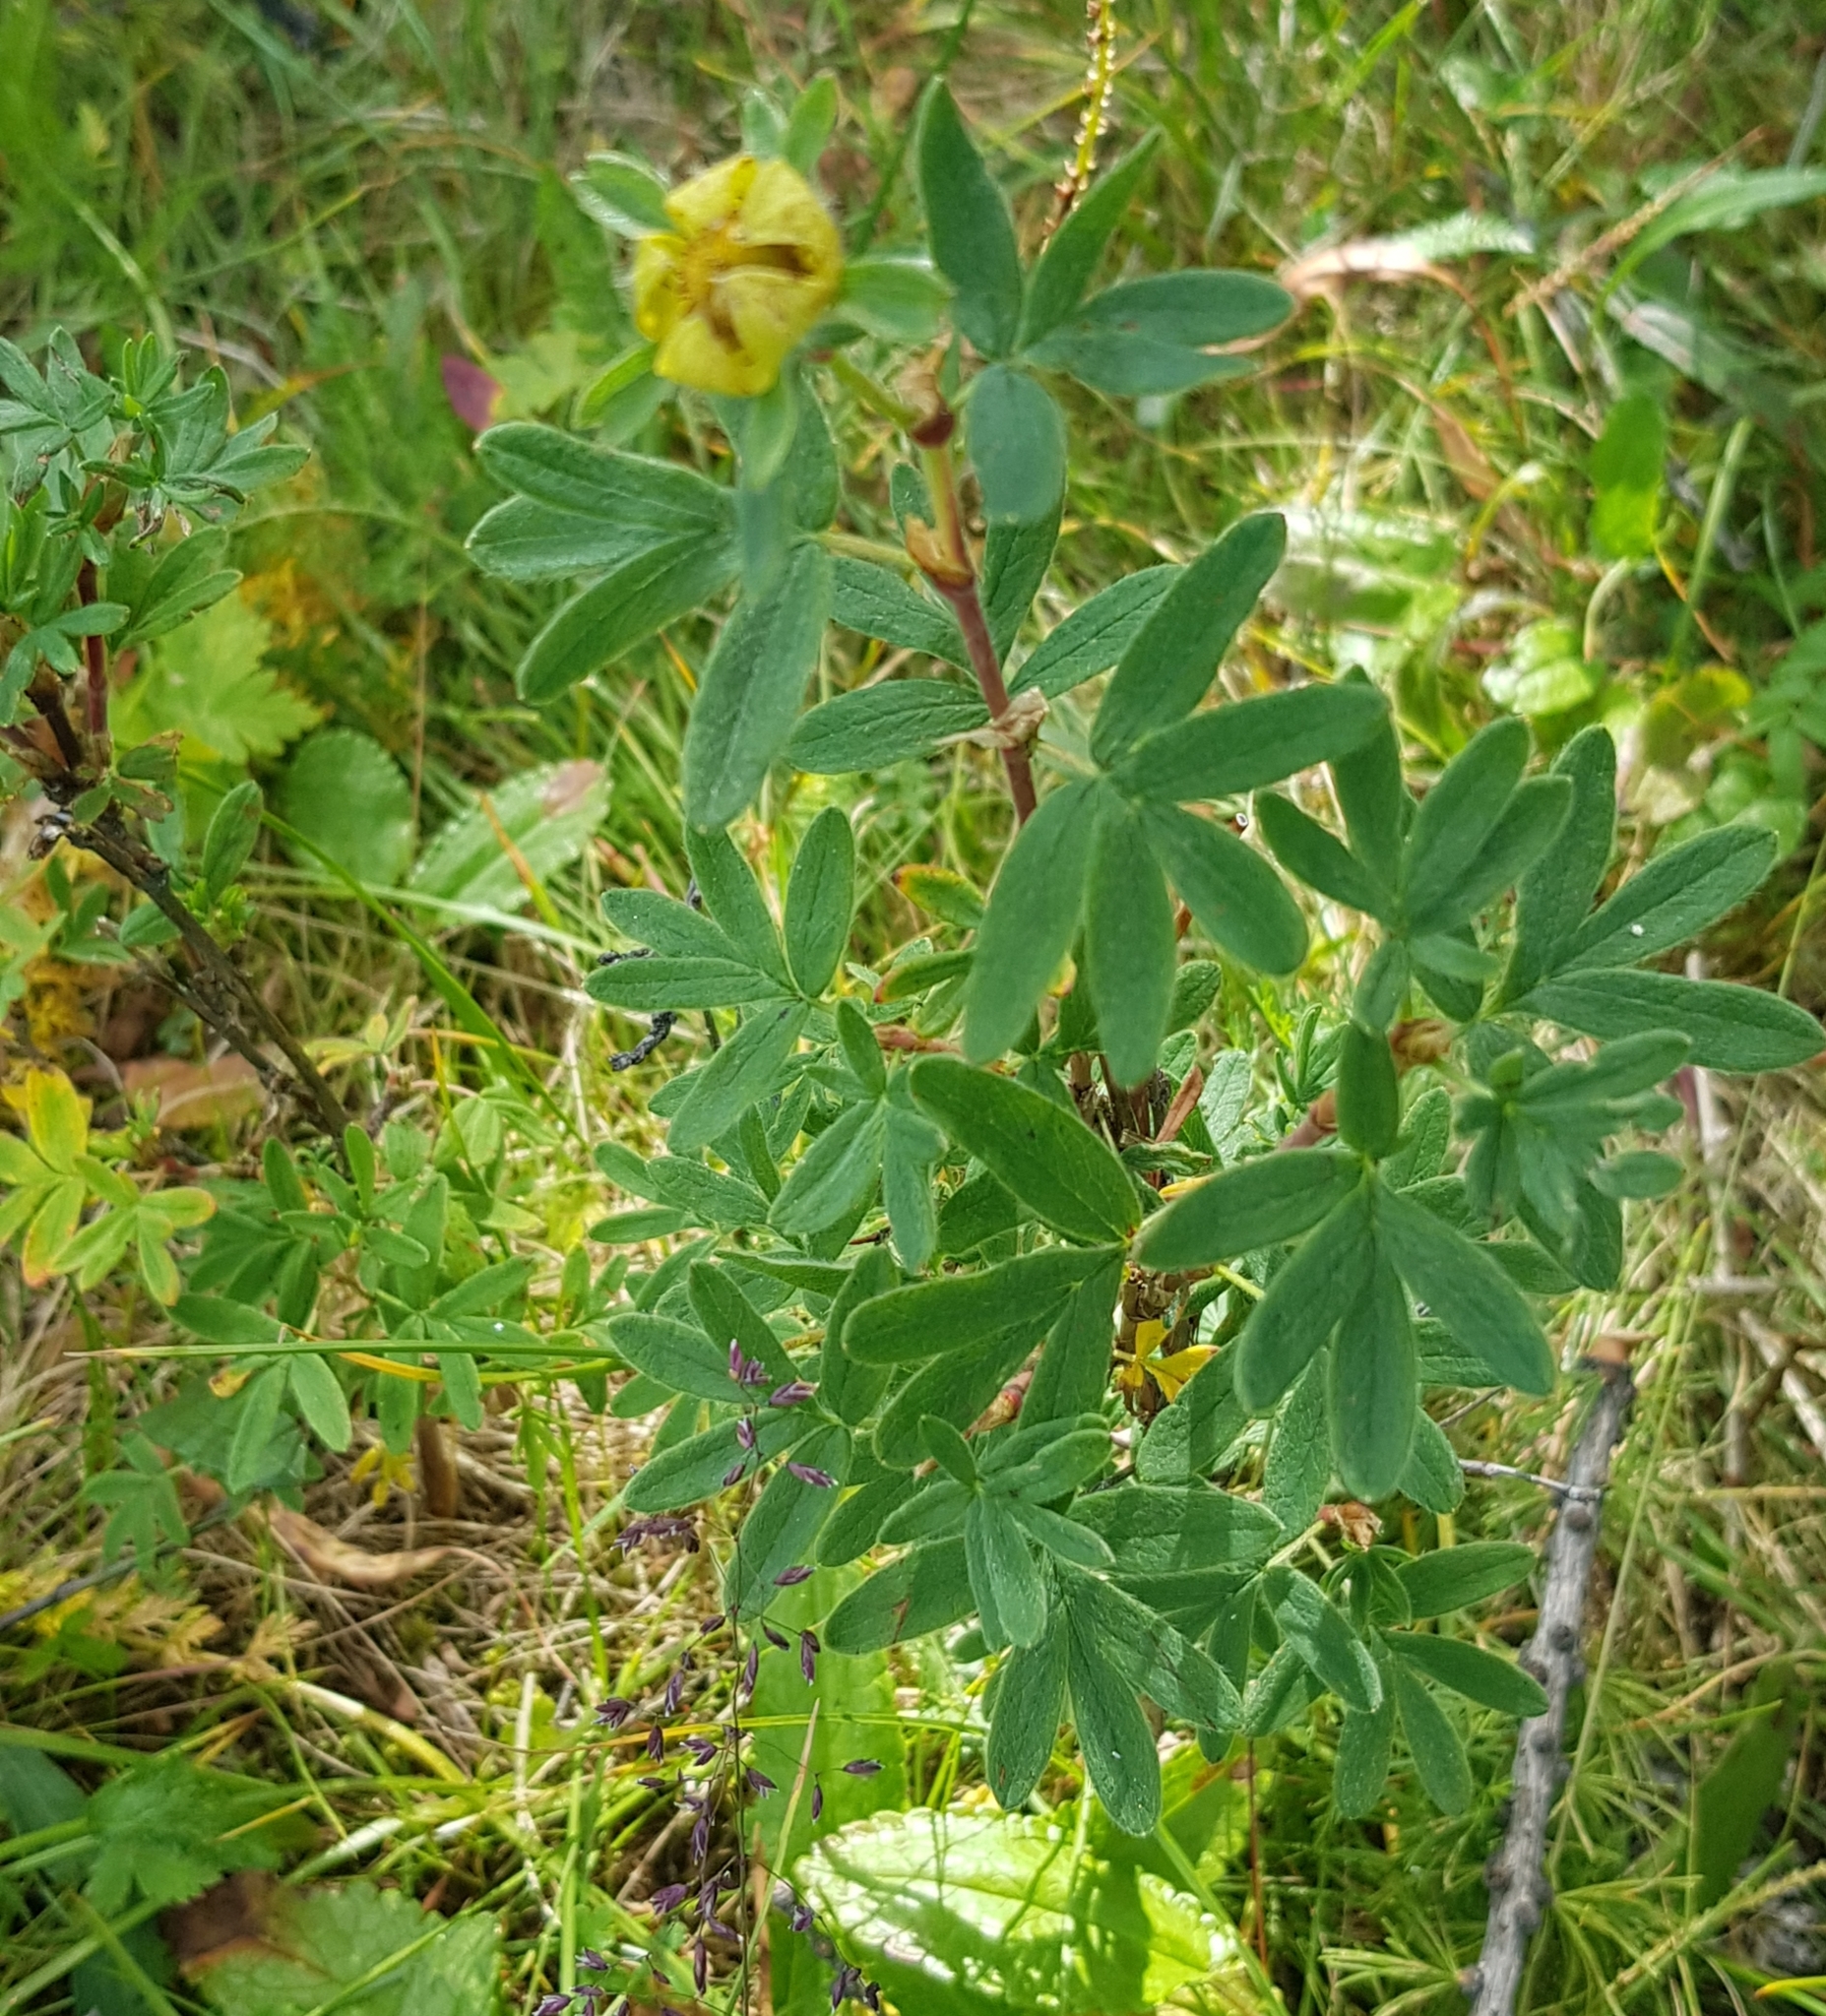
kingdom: Plantae
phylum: Tracheophyta
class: Magnoliopsida
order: Rosales
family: Rosaceae
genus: Dasiphora
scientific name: Dasiphora fruticosa
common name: Shrubby cinquefoil
